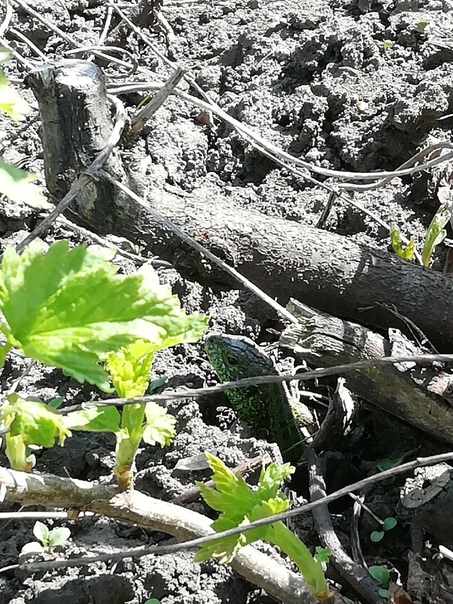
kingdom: Animalia
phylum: Chordata
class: Squamata
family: Lacertidae
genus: Lacerta
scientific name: Lacerta agilis
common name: Sand lizard
